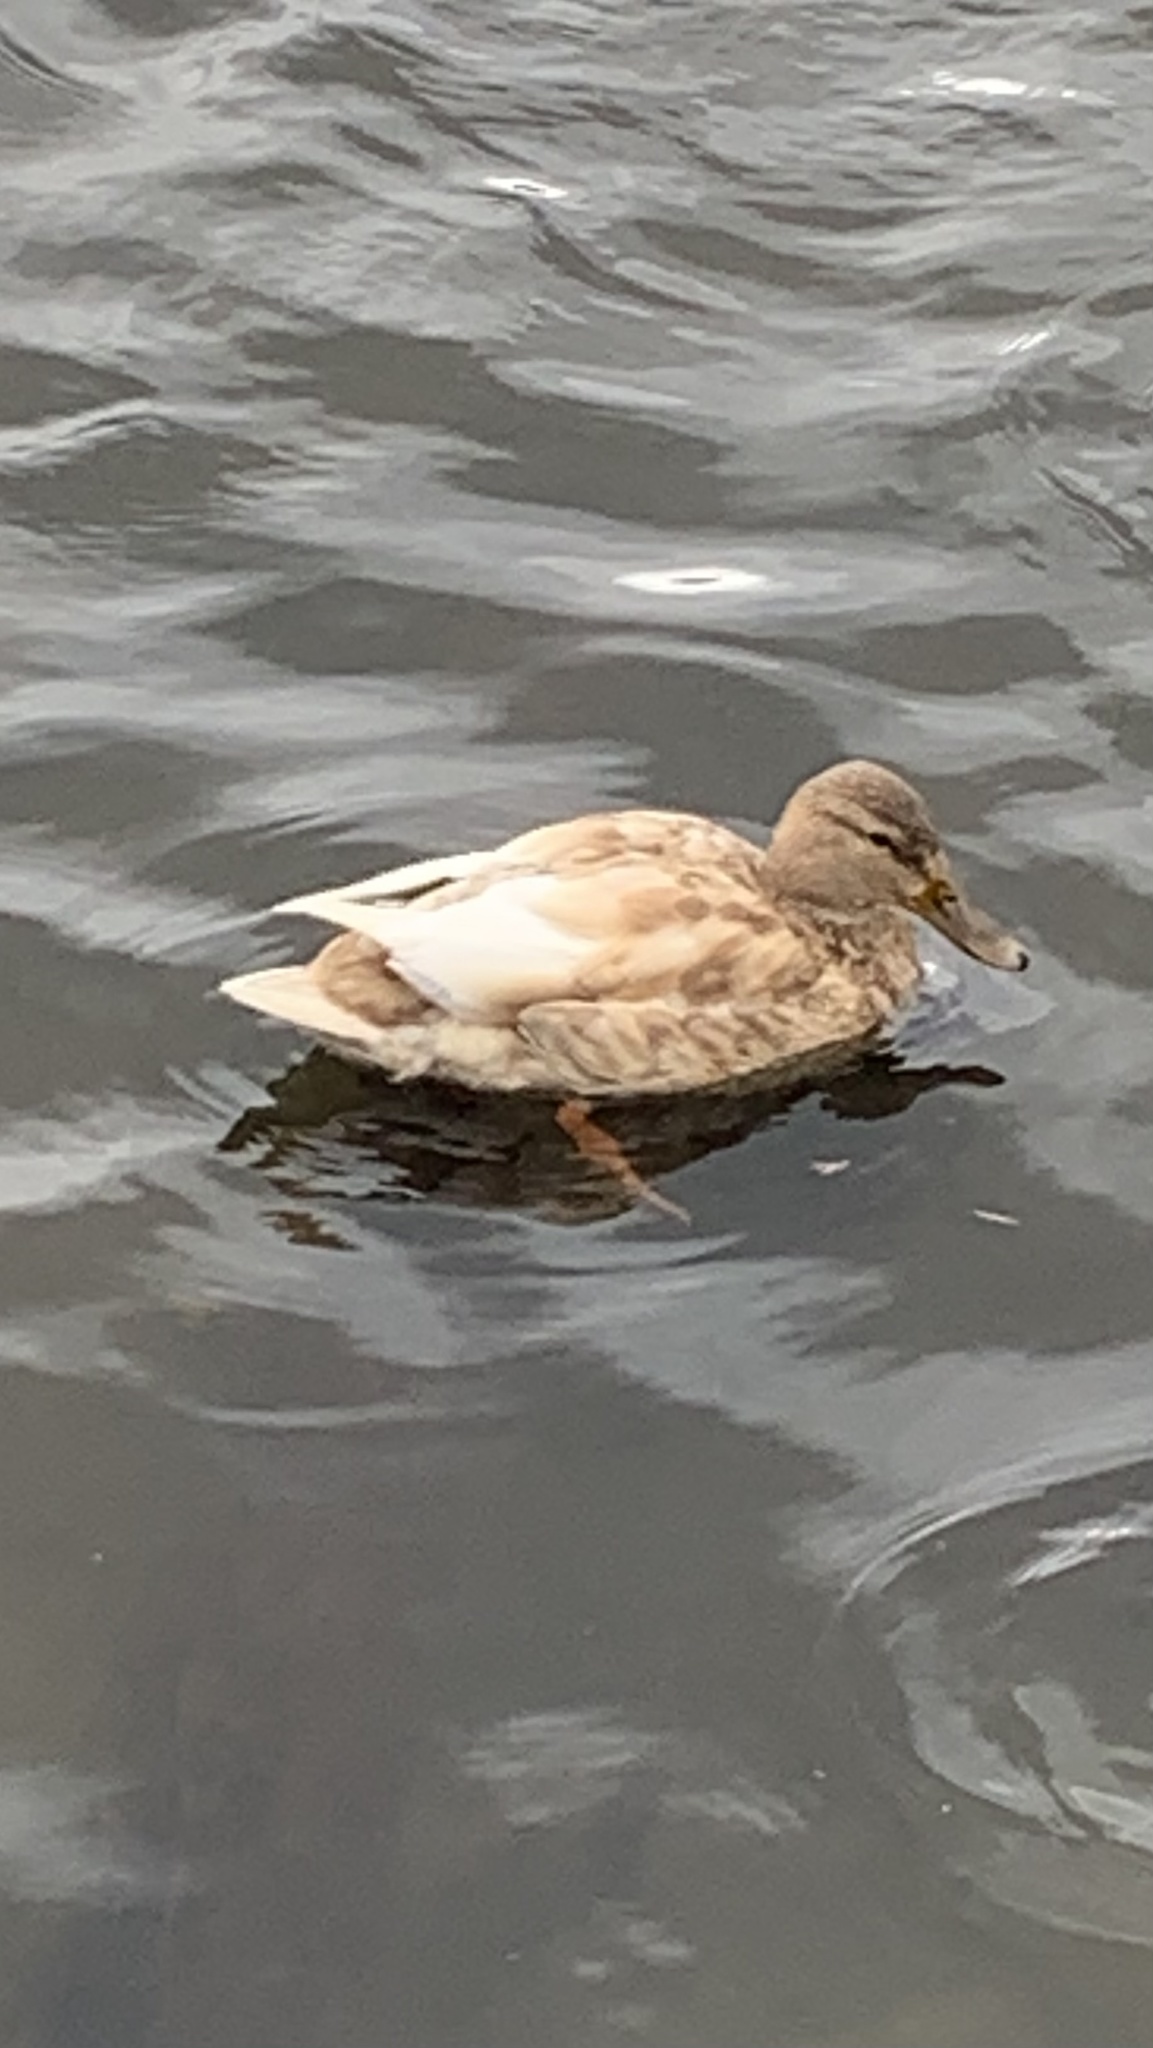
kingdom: Animalia
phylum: Chordata
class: Aves
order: Anseriformes
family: Anatidae
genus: Anas
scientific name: Anas platyrhynchos
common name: Mallard
